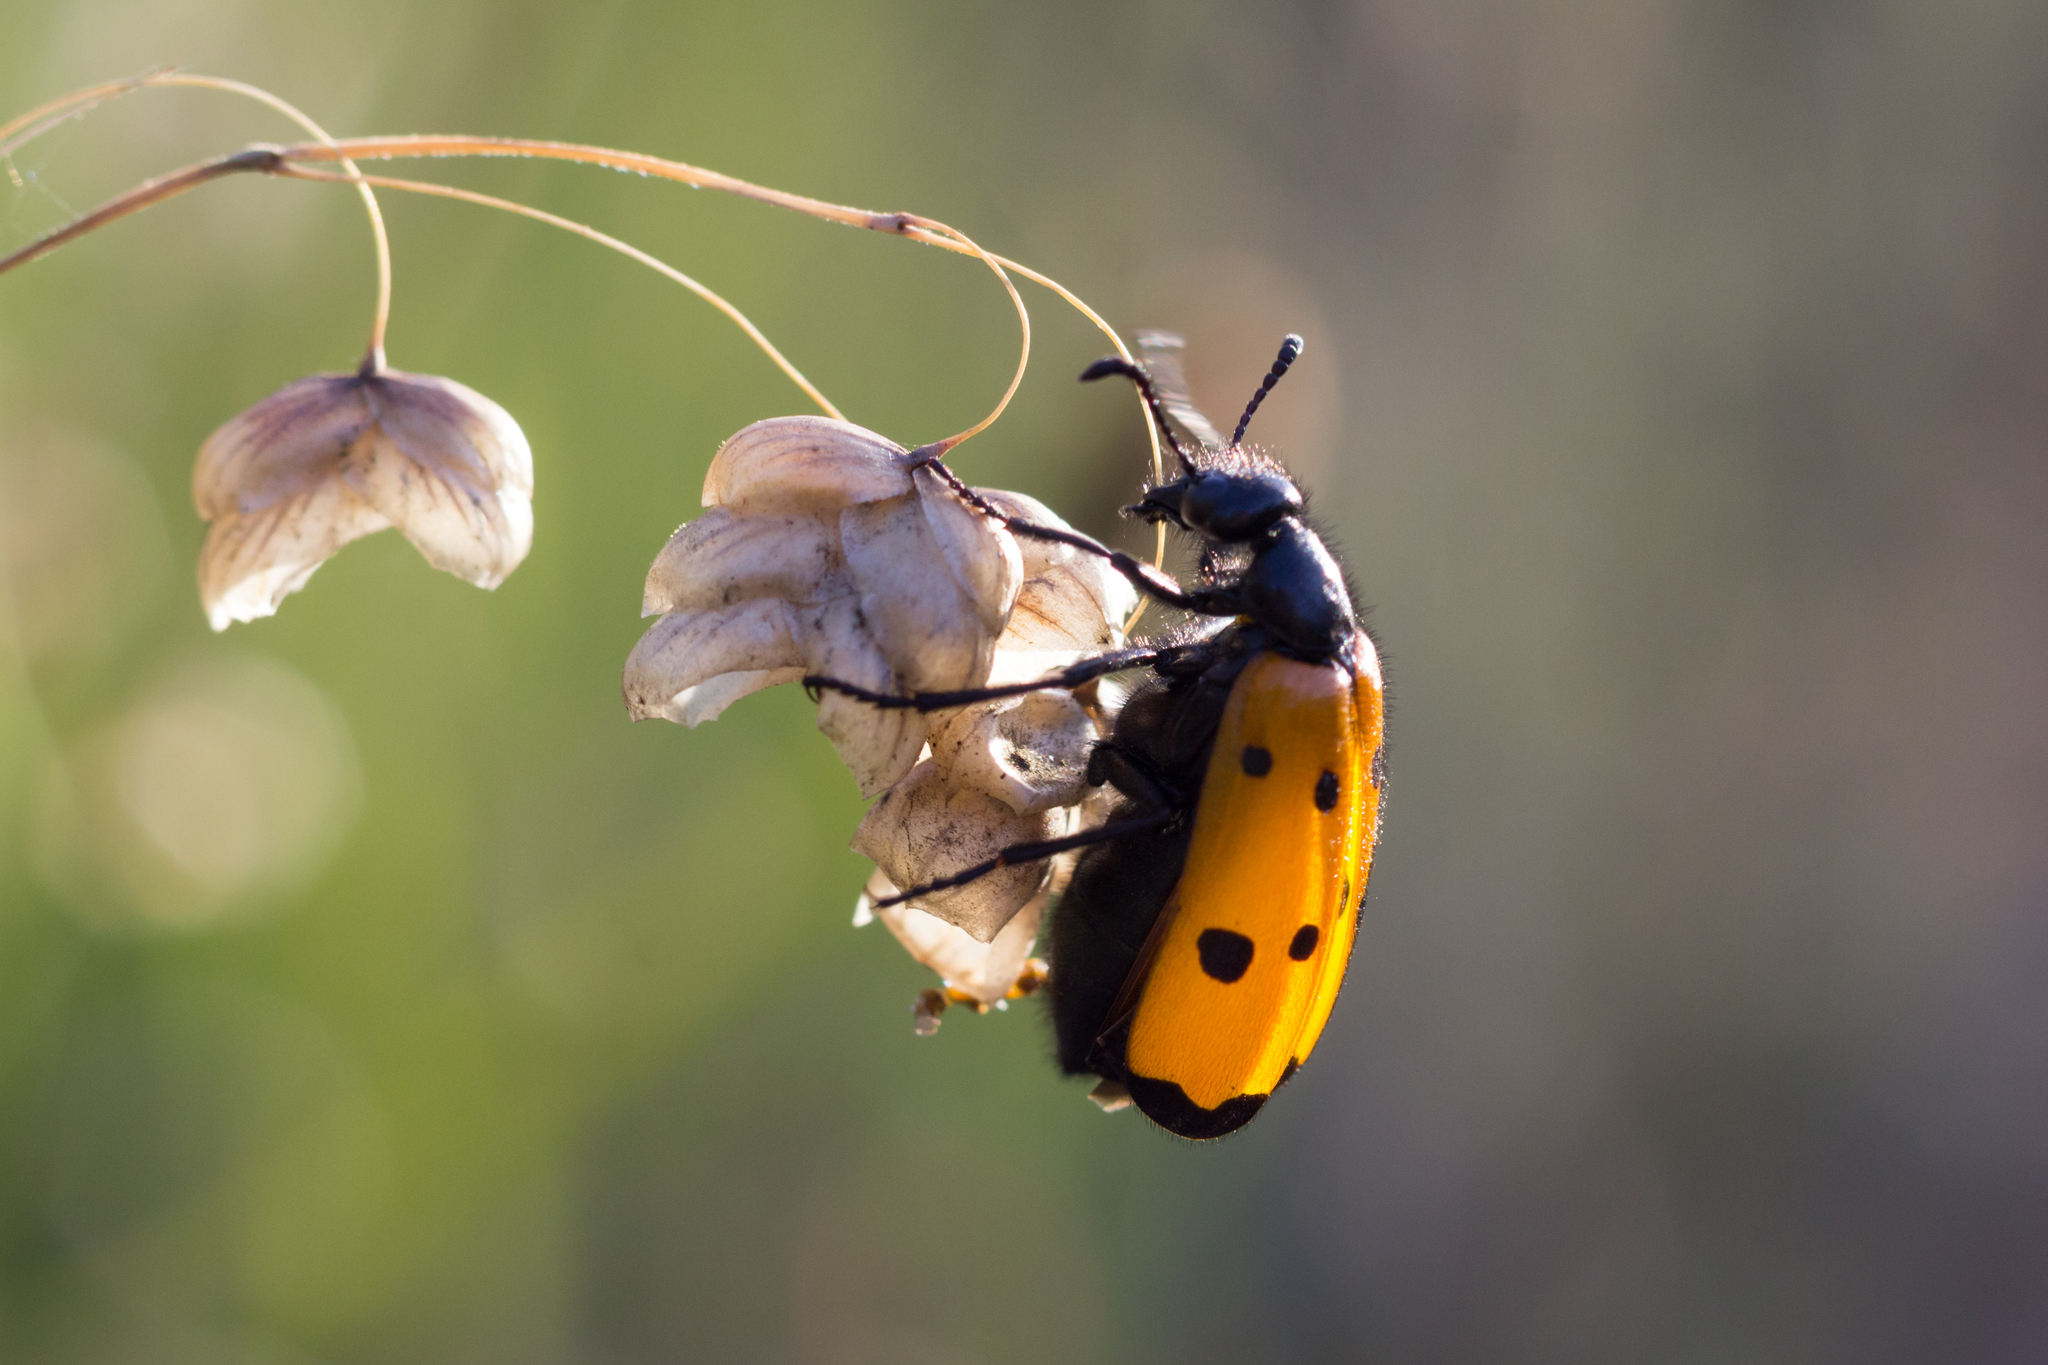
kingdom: Animalia
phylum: Arthropoda
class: Insecta
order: Coleoptera
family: Meloidae
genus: Mylabris
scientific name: Mylabris quadripunctata
